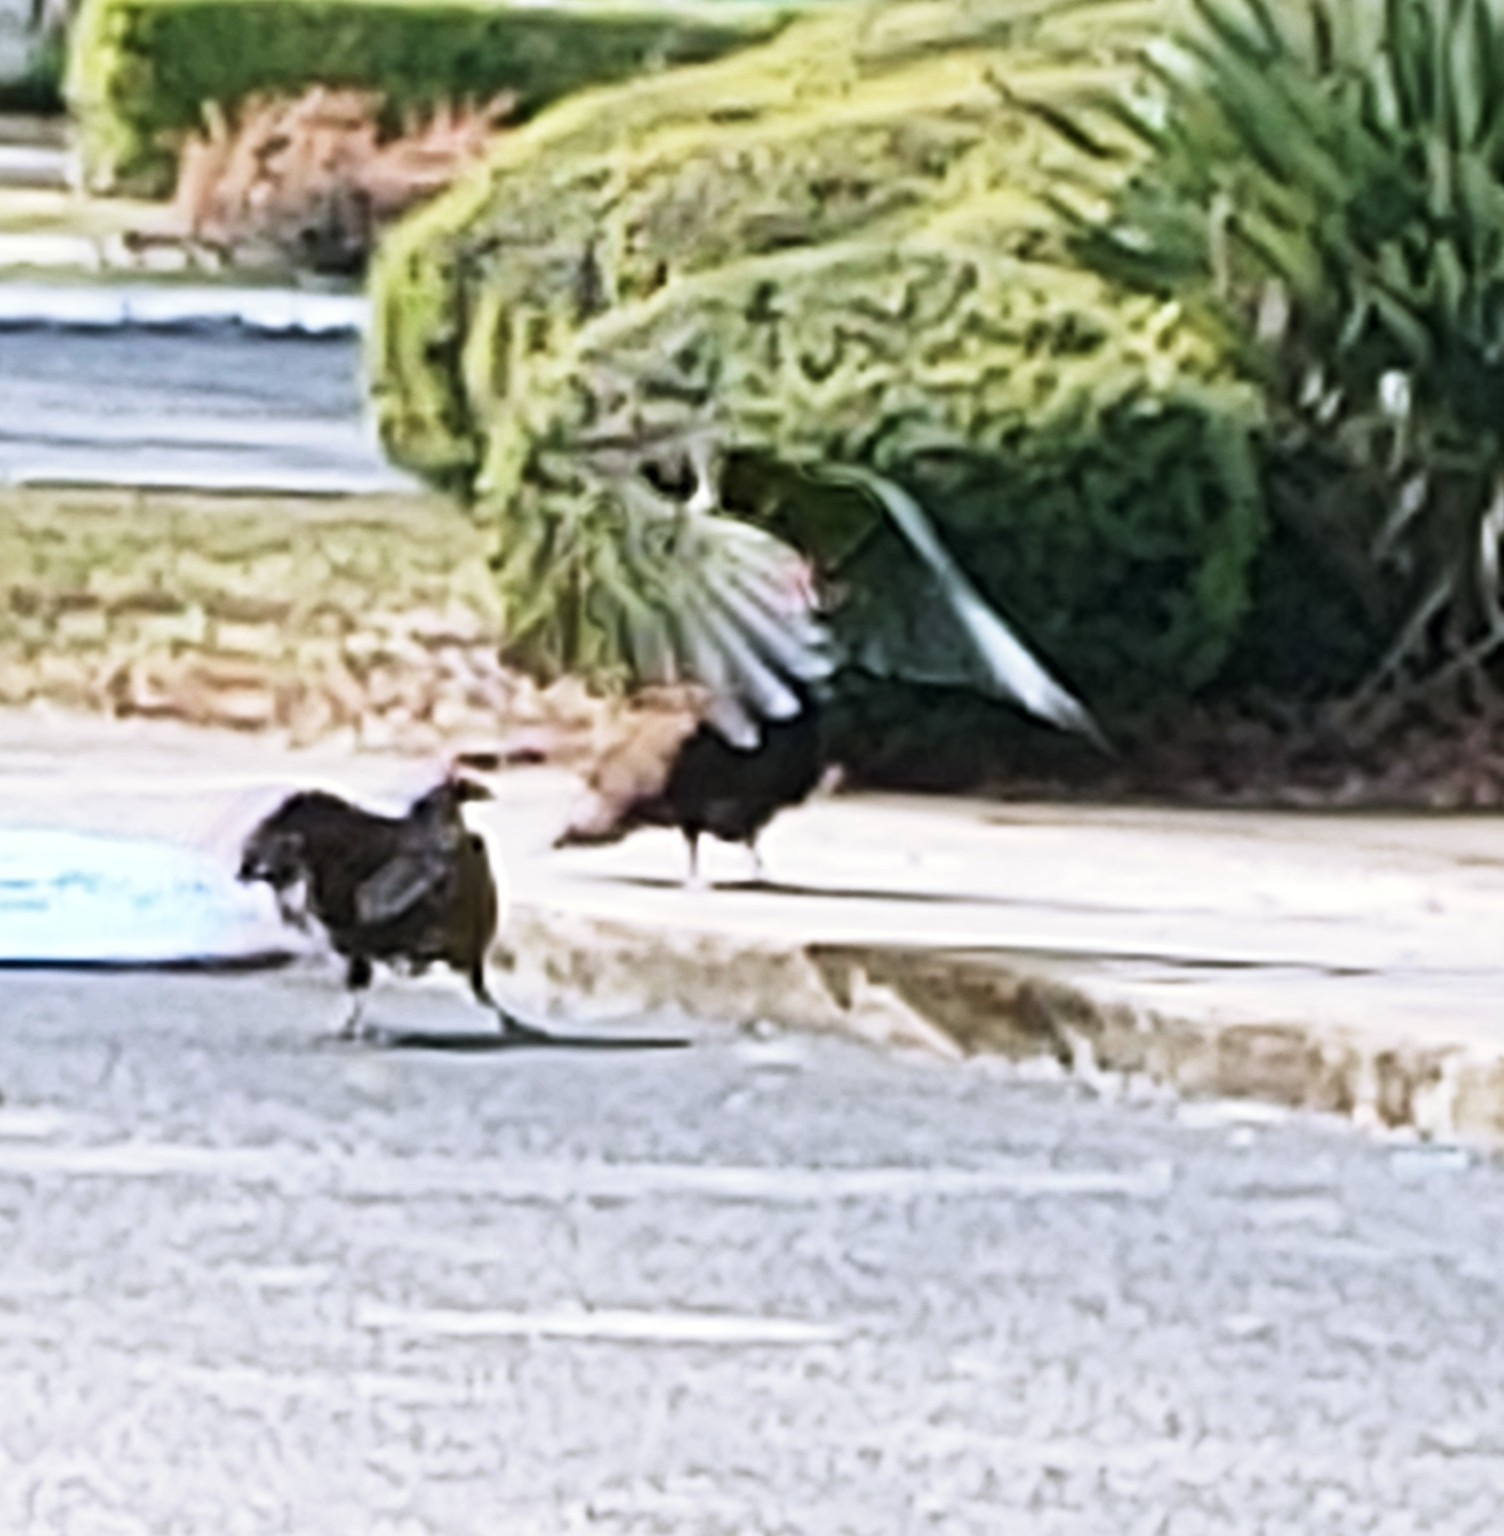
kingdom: Animalia
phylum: Chordata
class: Aves
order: Accipitriformes
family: Cathartidae
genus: Cathartes
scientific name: Cathartes aura
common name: Turkey vulture
